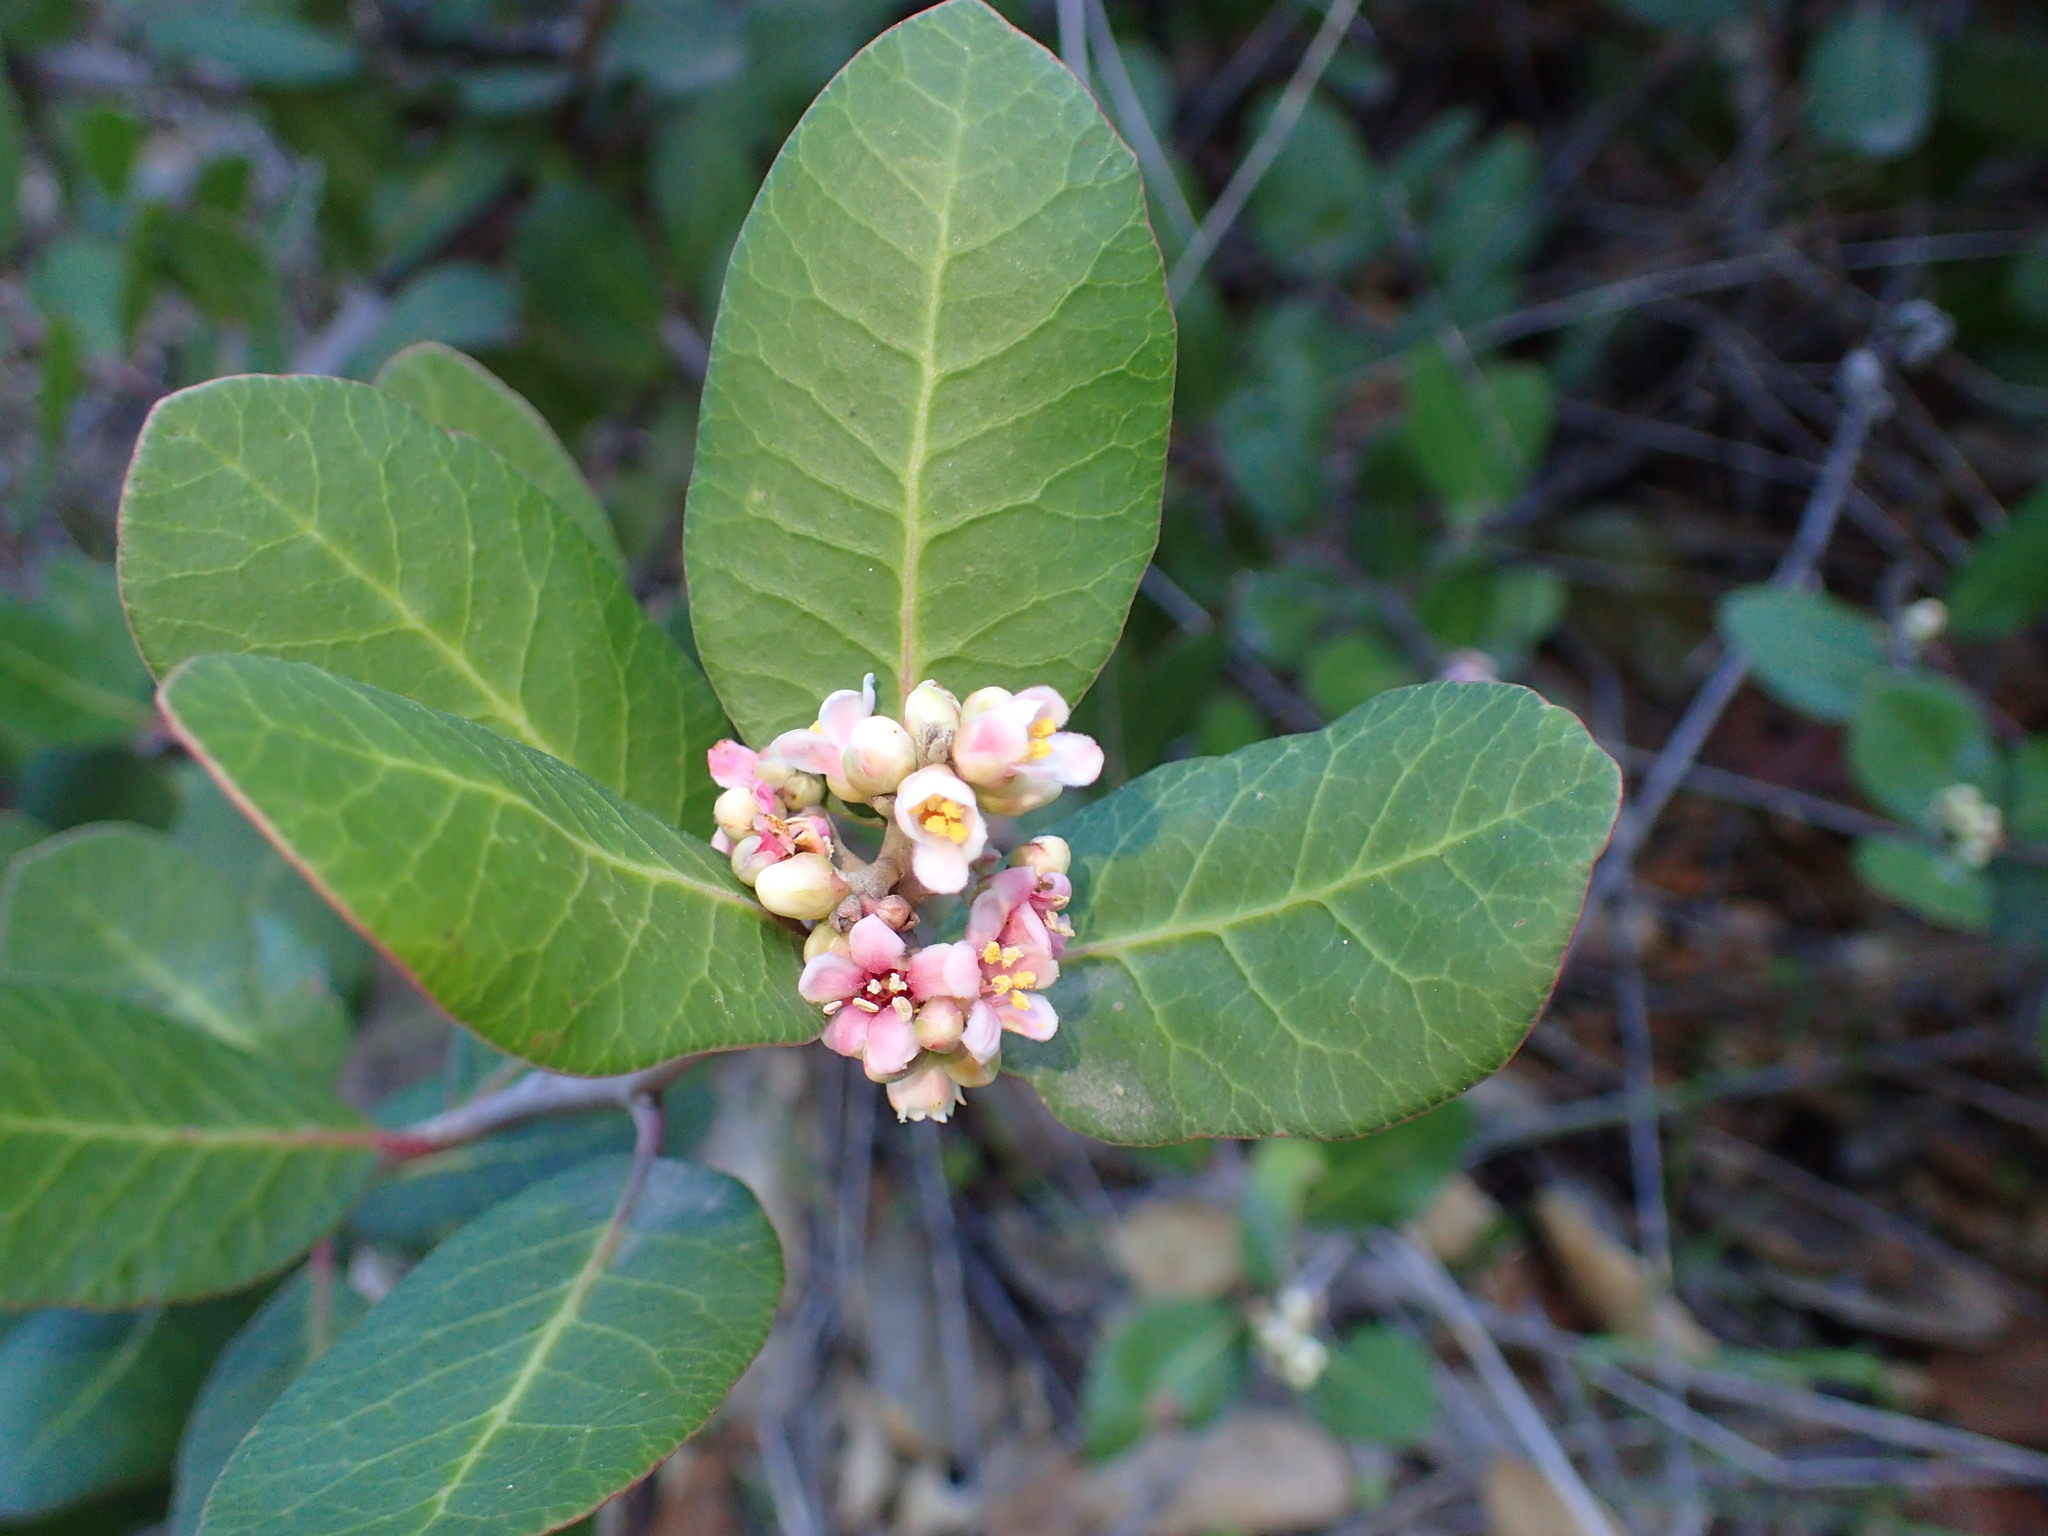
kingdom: Plantae
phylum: Tracheophyta
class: Magnoliopsida
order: Sapindales
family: Anacardiaceae
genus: Rhus
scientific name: Rhus integrifolia
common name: Lemonade sumac
